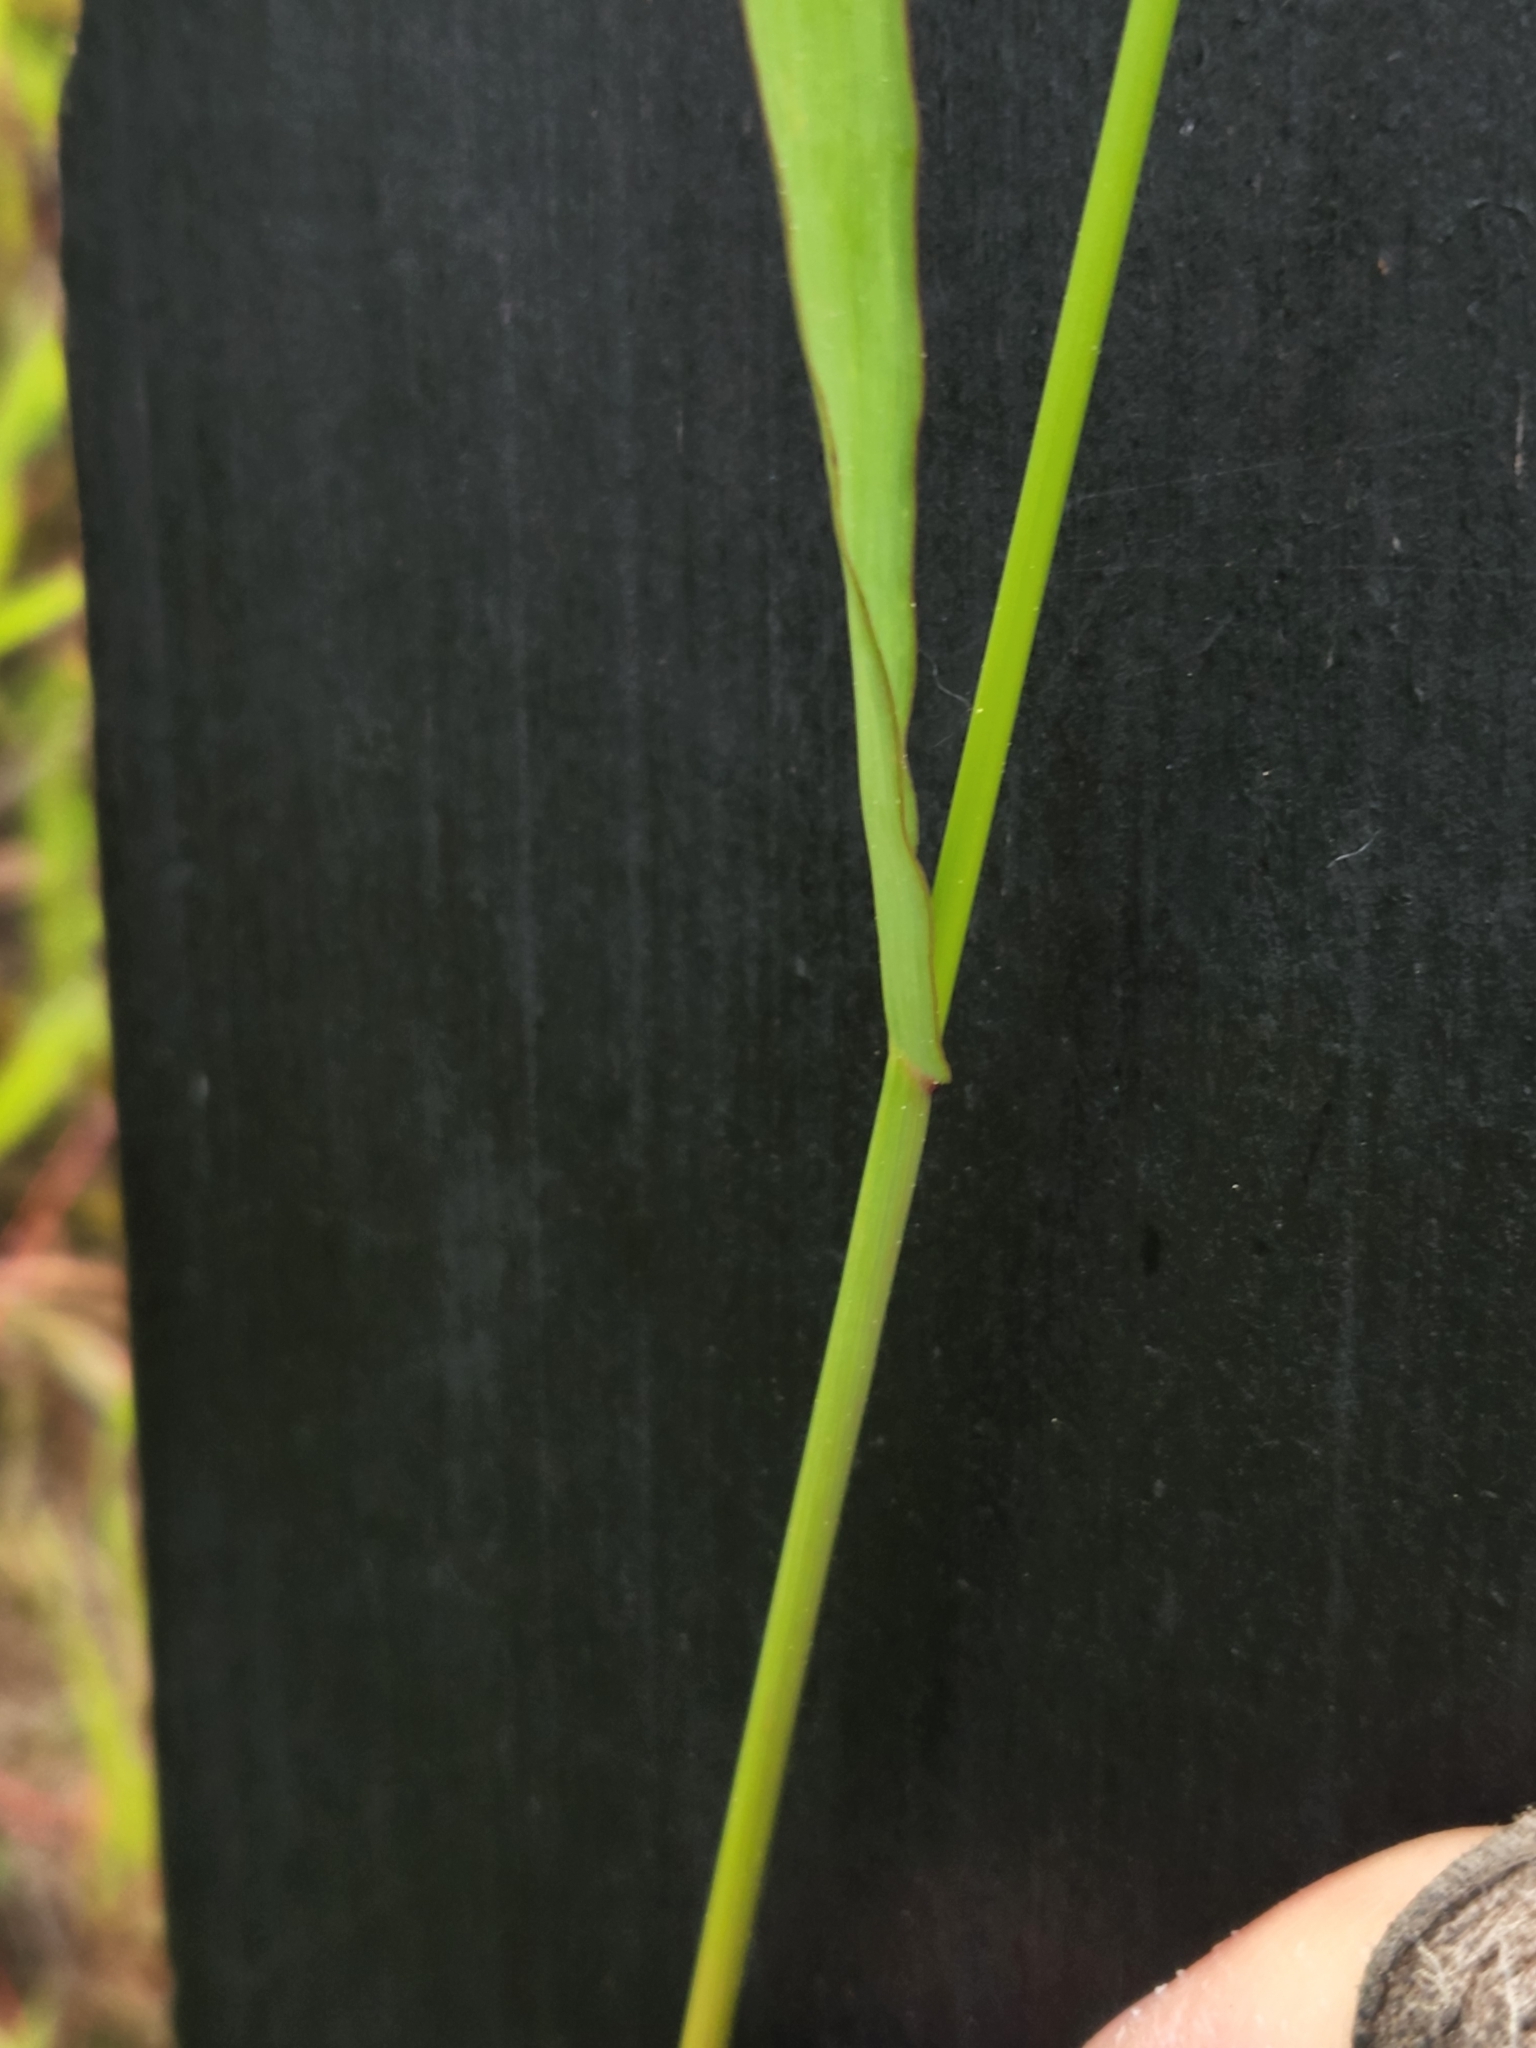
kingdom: Plantae
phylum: Tracheophyta
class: Liliopsida
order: Poales
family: Poaceae
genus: Bromus
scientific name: Bromus inermis
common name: Smooth brome
